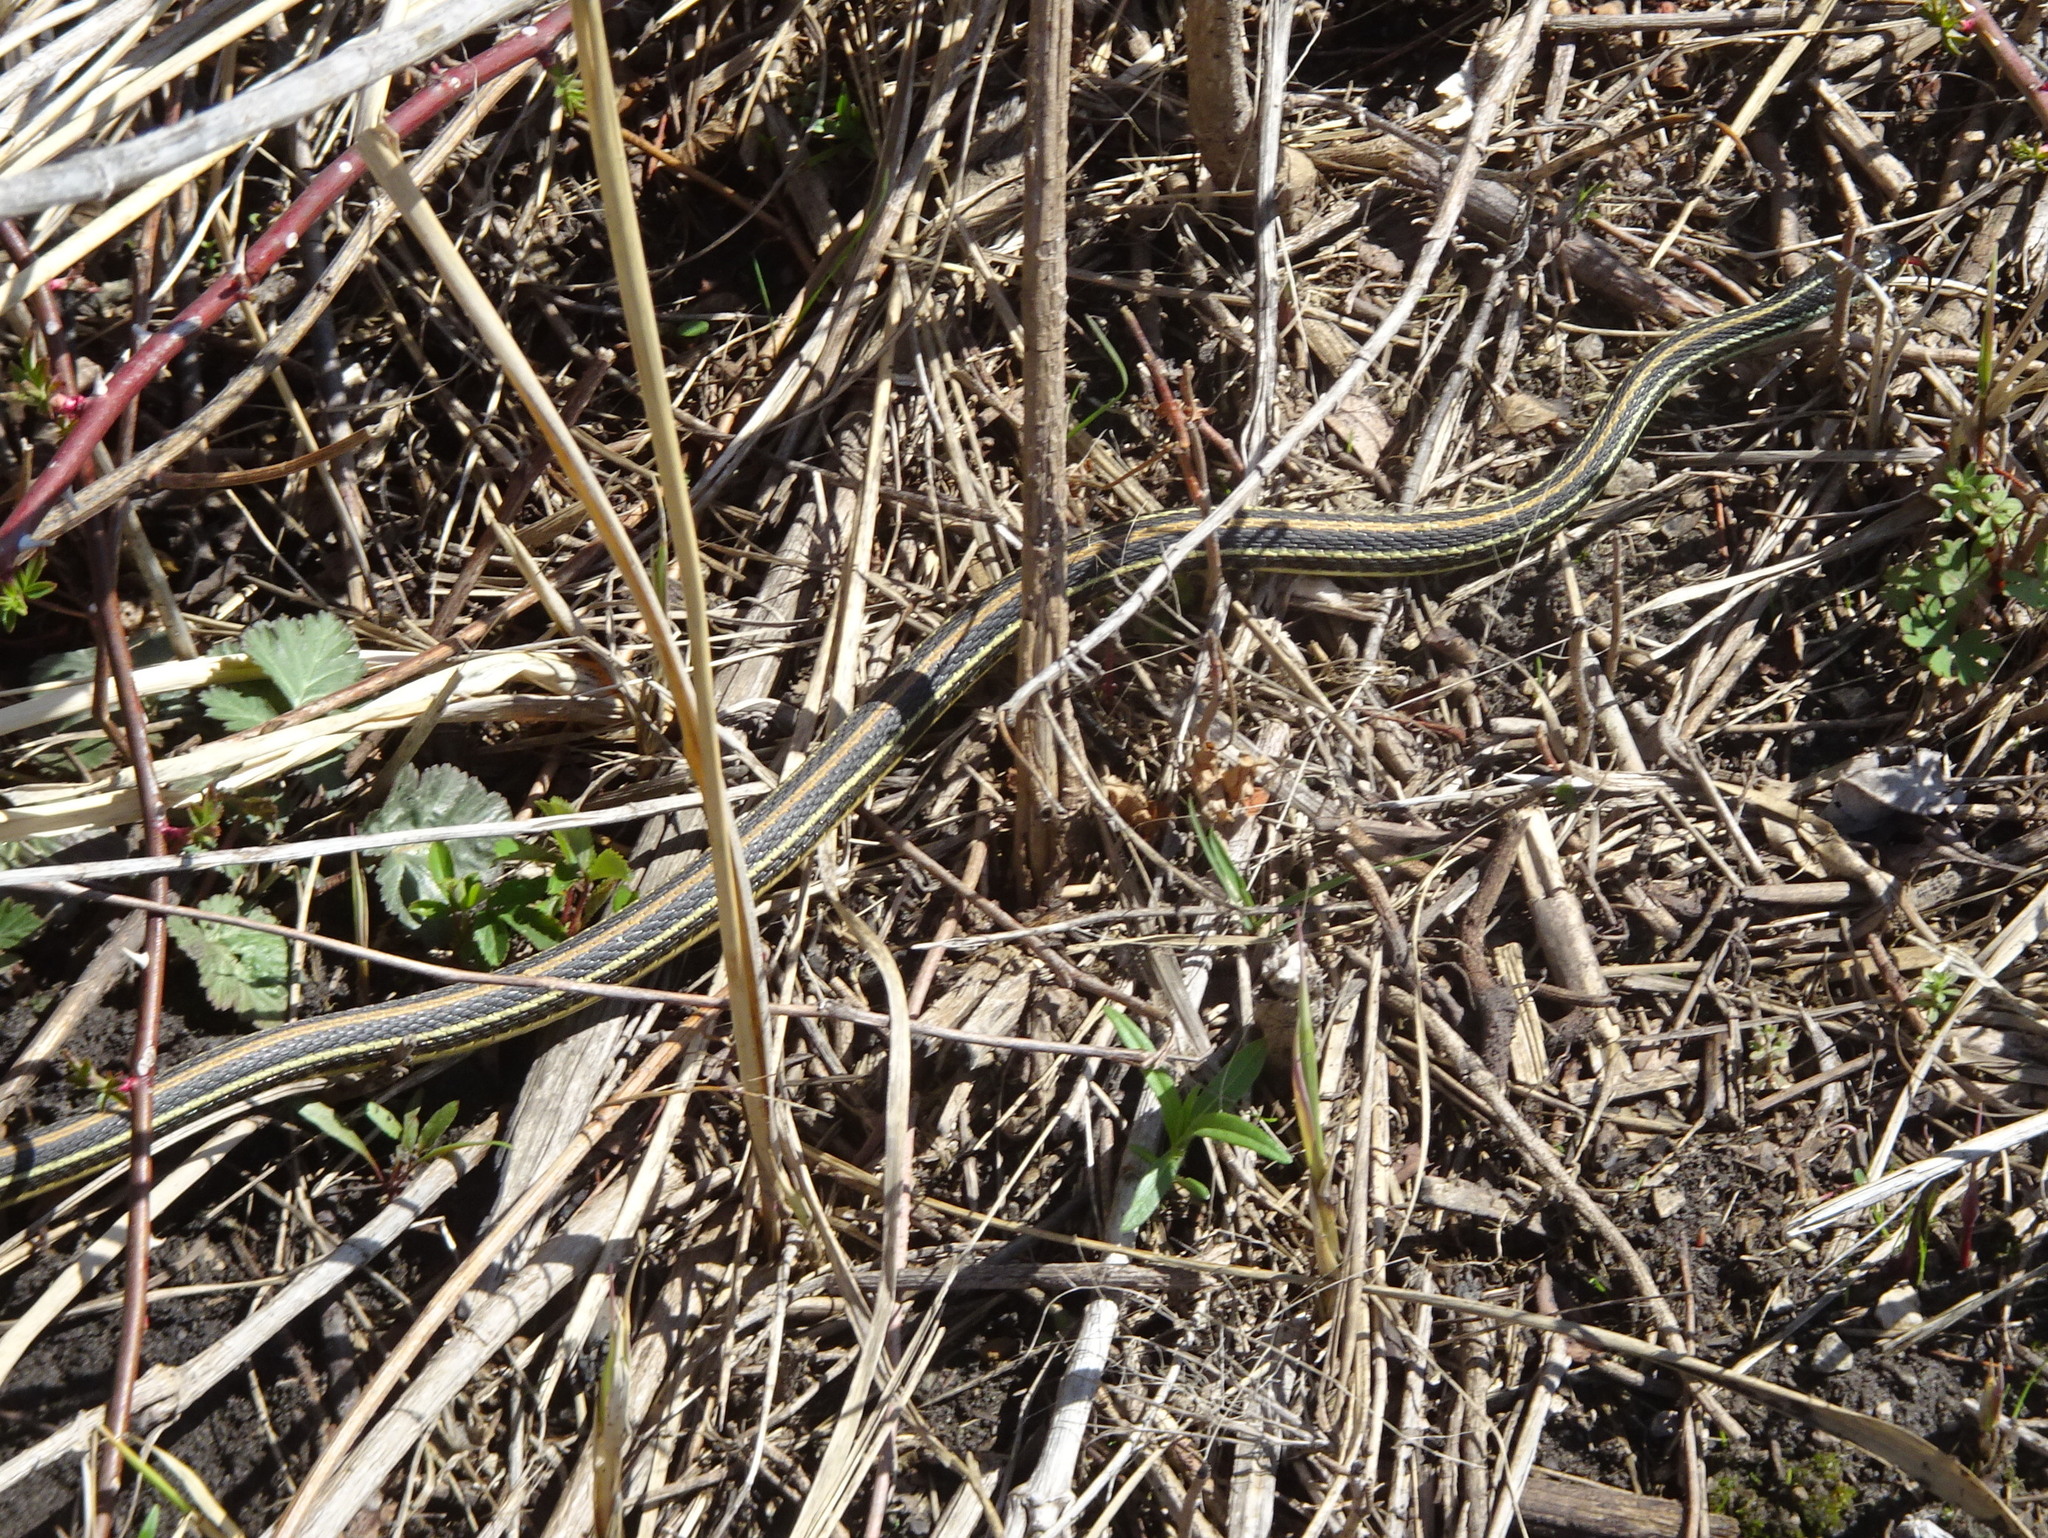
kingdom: Animalia
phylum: Chordata
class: Squamata
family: Colubridae
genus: Thamnophis
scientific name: Thamnophis proximus
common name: Western ribbon snake
